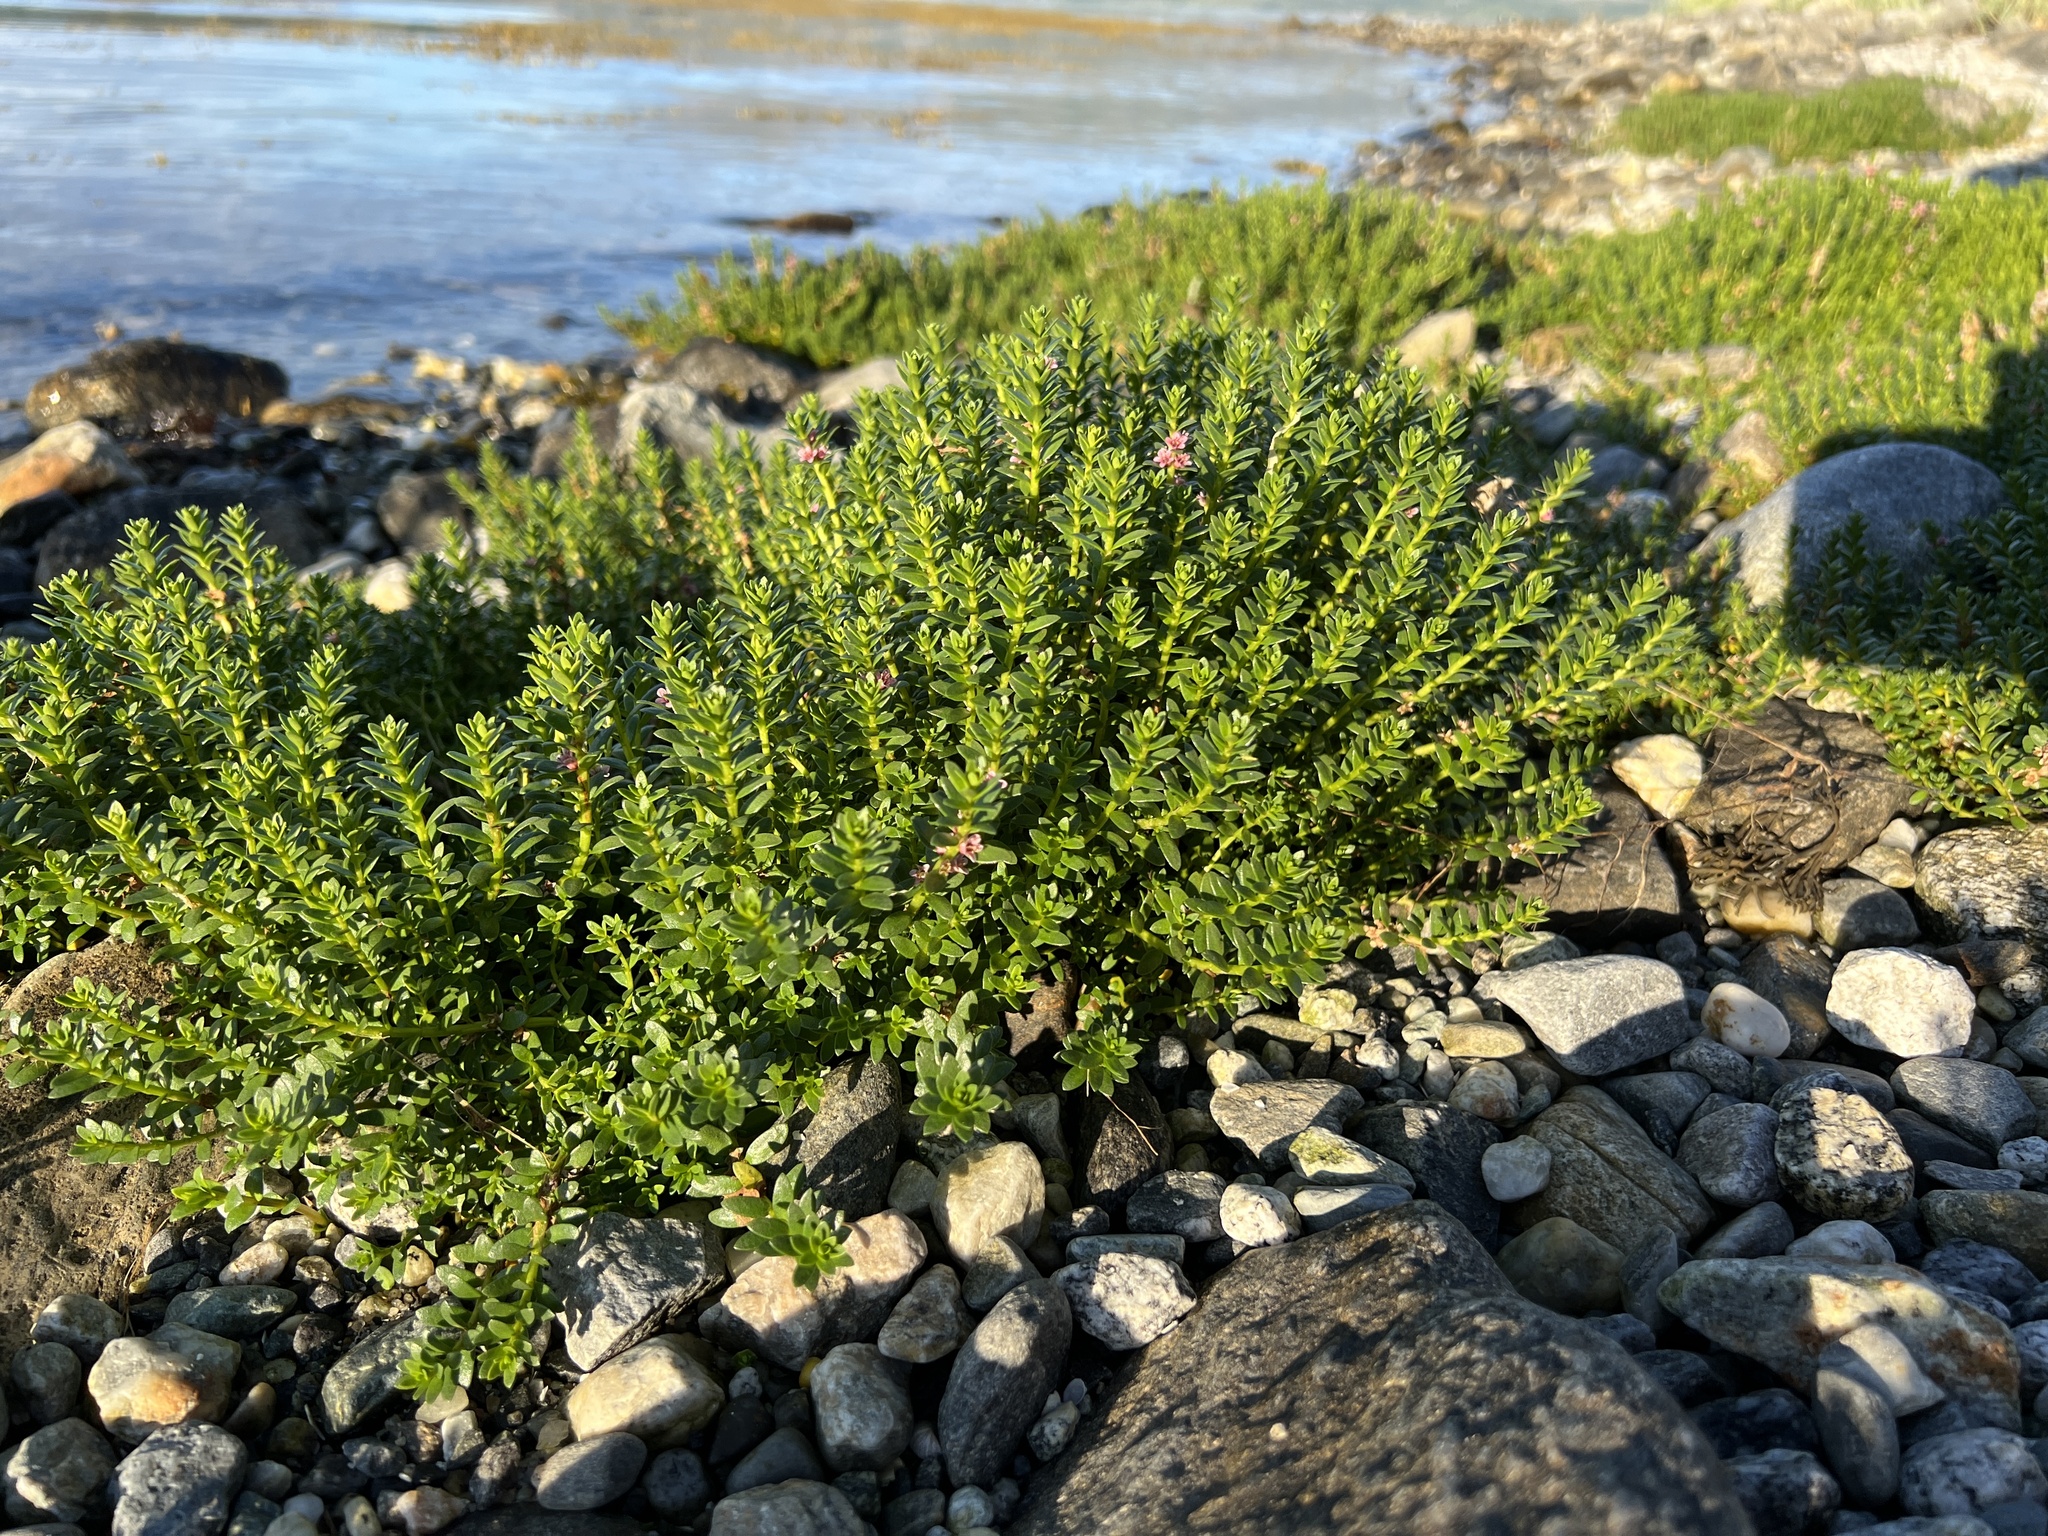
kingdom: Plantae
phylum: Tracheophyta
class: Magnoliopsida
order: Ericales
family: Primulaceae
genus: Lysimachia
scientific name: Lysimachia maritima
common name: Sea milkwort
